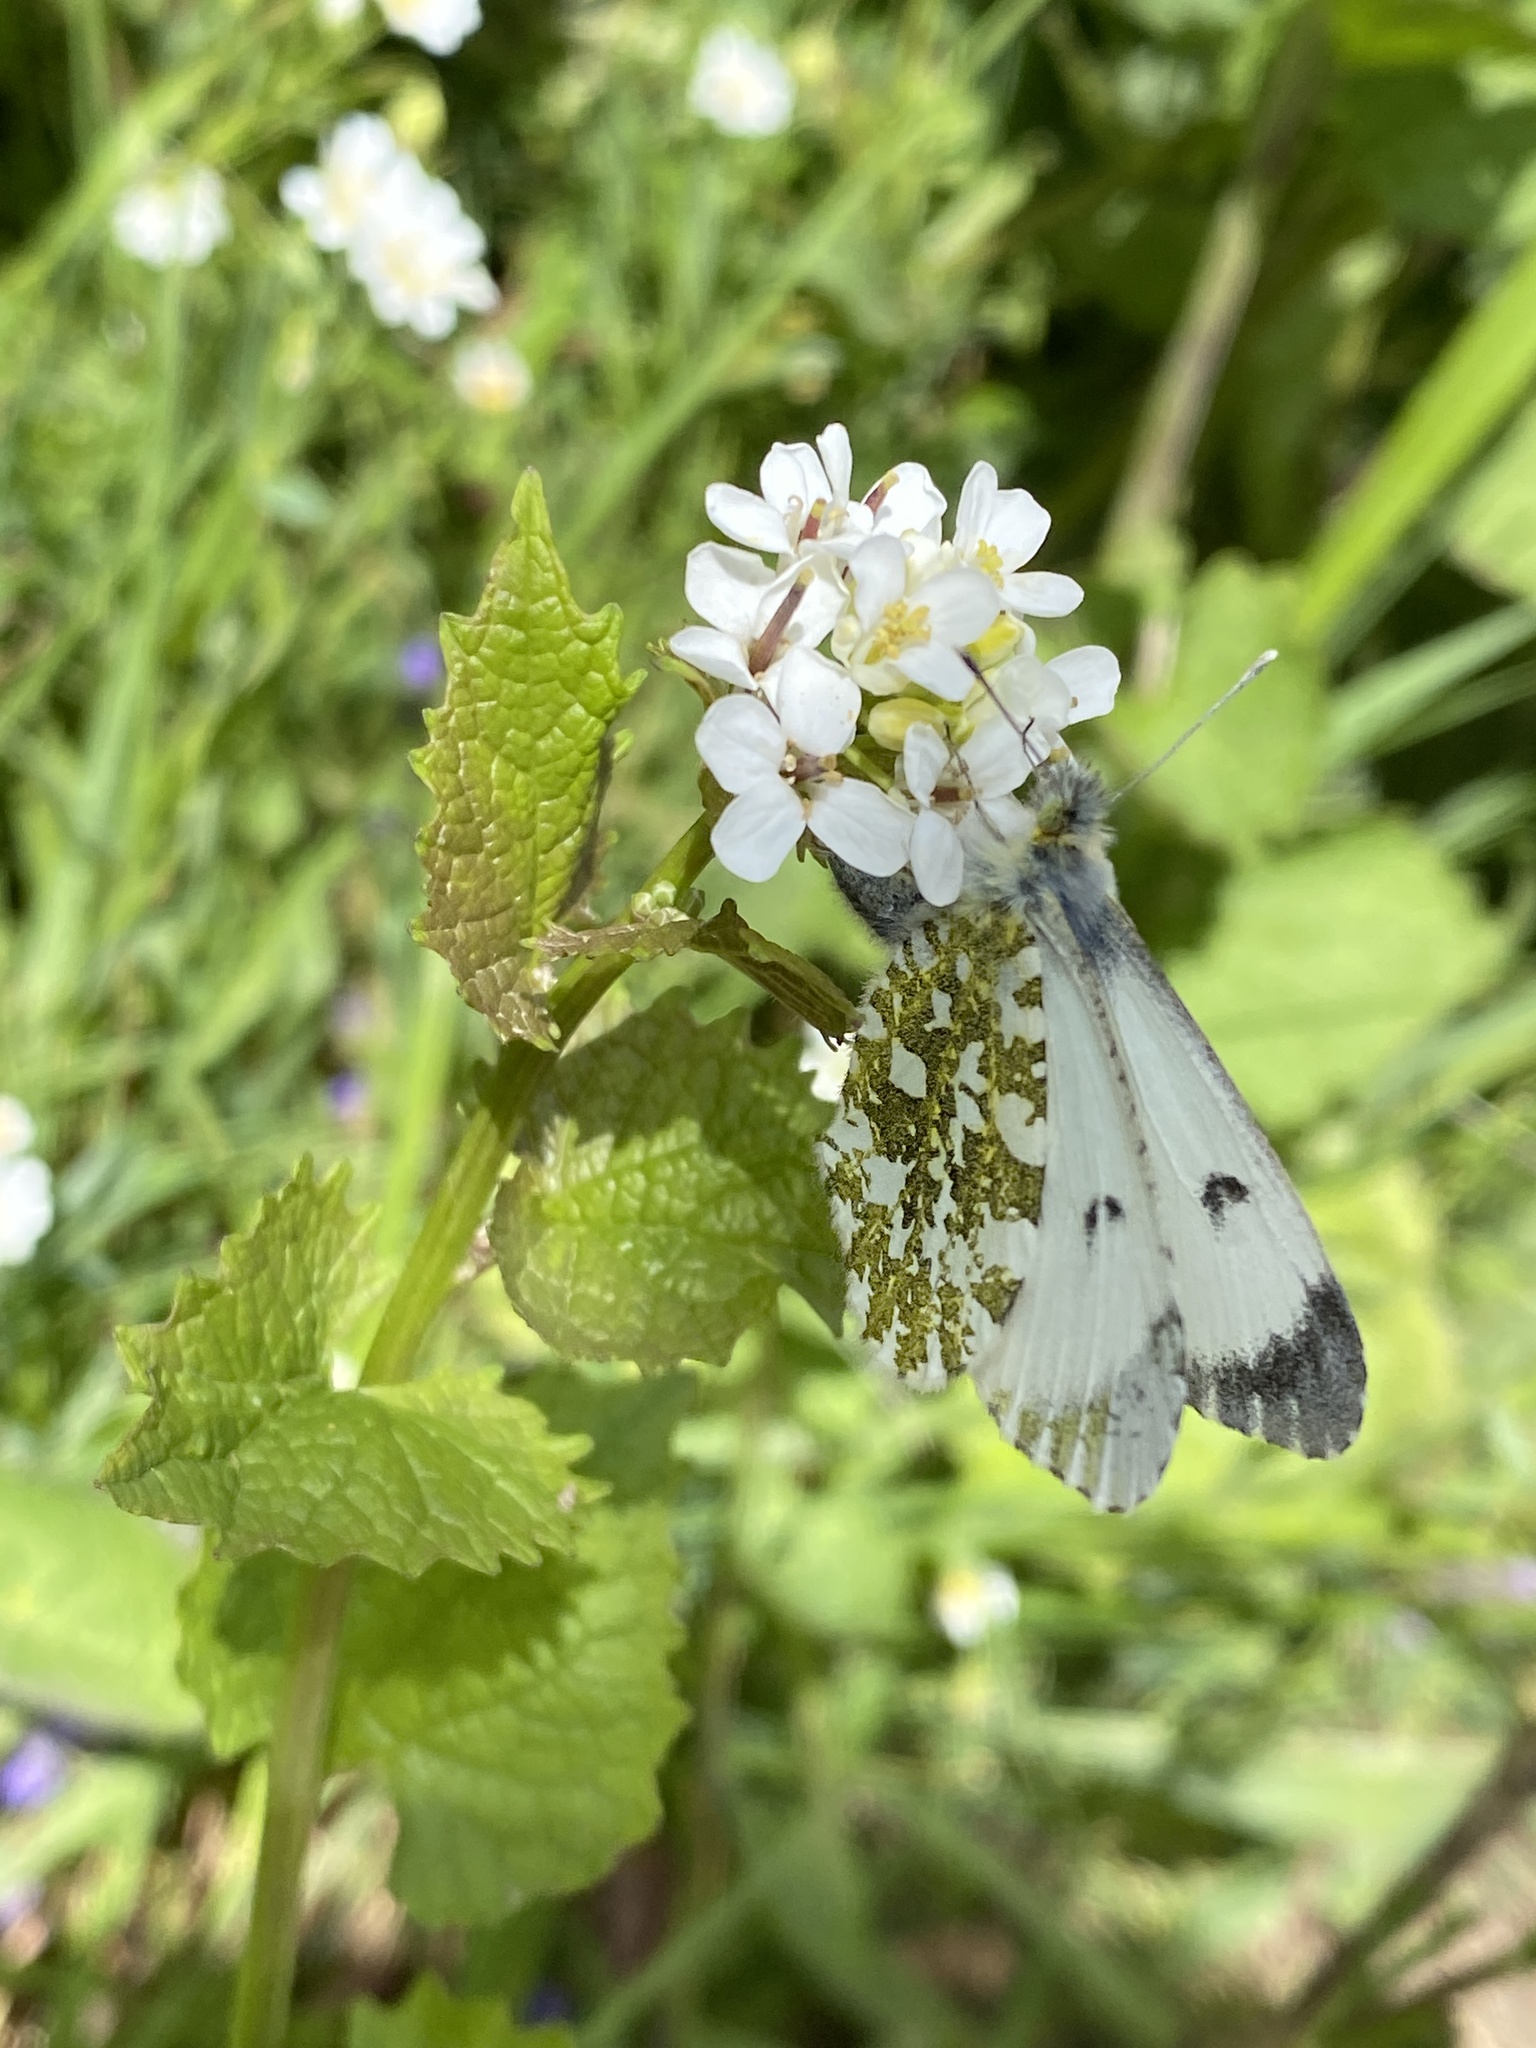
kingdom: Animalia
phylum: Arthropoda
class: Insecta
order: Lepidoptera
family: Pieridae
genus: Anthocharis
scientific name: Anthocharis cardamines
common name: Orange-tip
